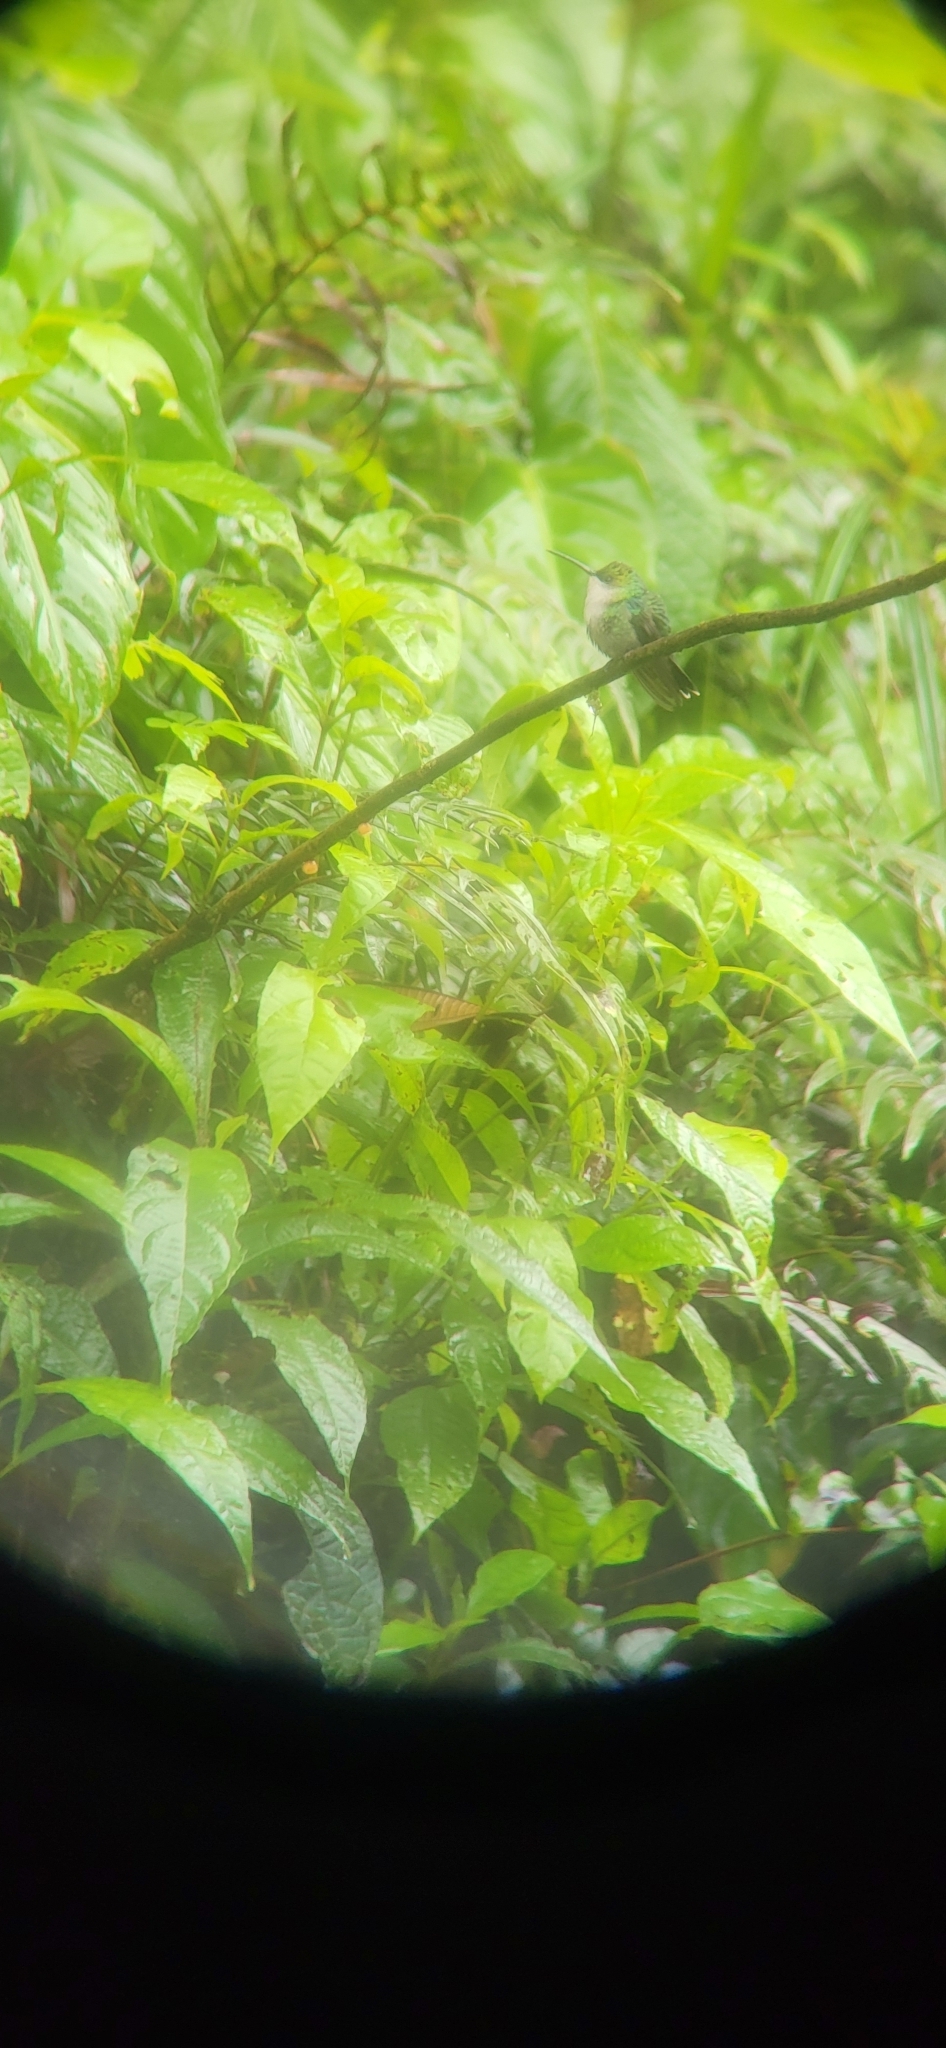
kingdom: Animalia
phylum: Chordata
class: Aves
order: Apodiformes
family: Trochilidae
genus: Thalurania
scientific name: Thalurania colombica
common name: Crowned woodnymph
